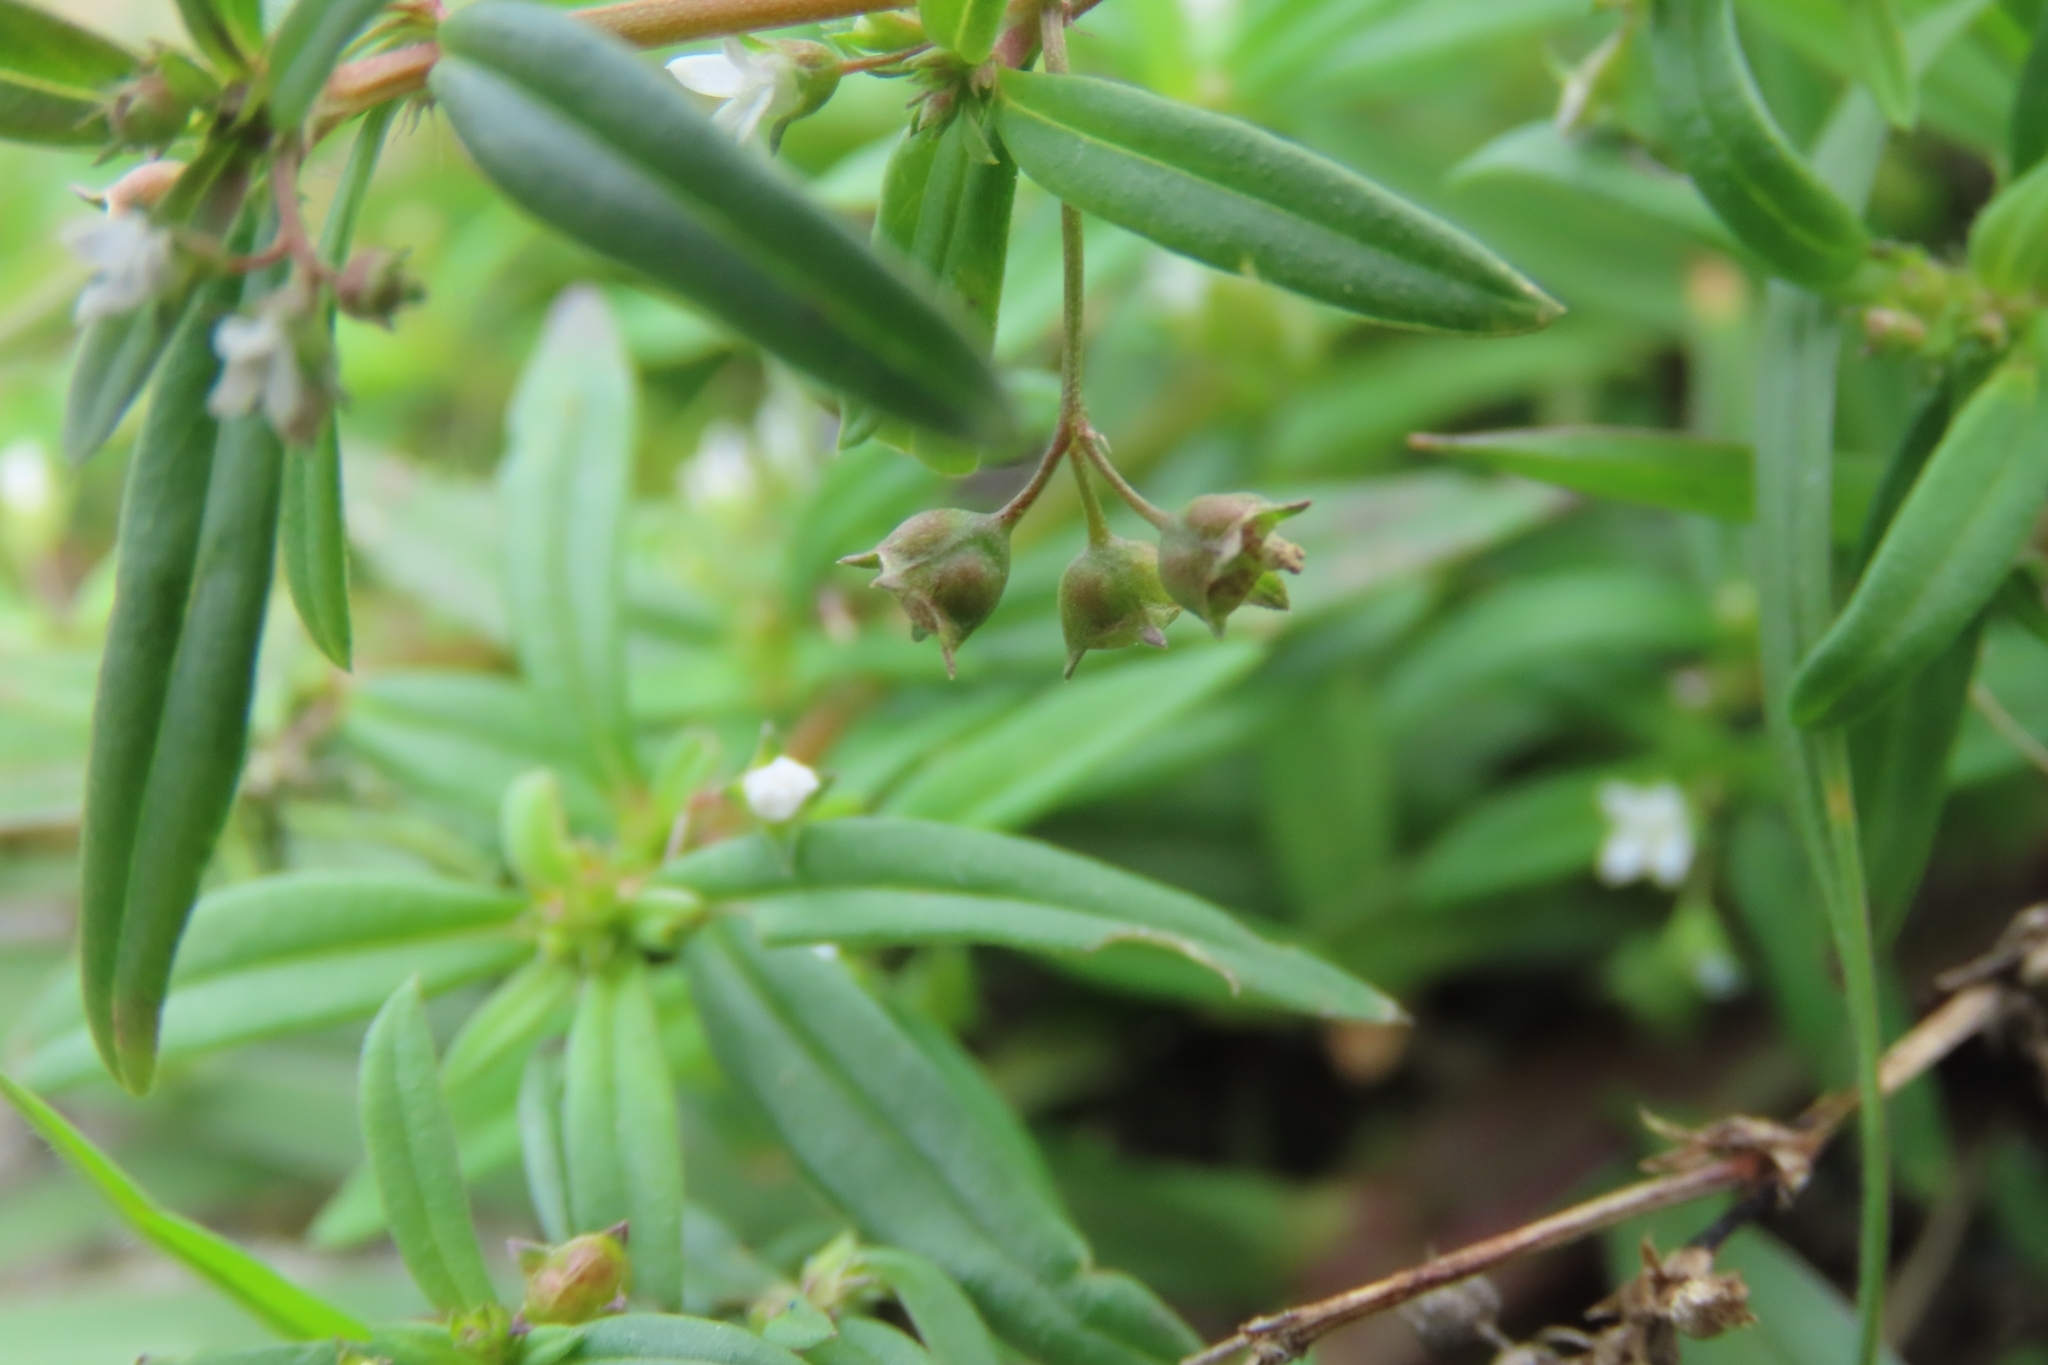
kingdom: Plantae
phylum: Tracheophyta
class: Magnoliopsida
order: Gentianales
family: Rubiaceae
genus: Oldenlandia
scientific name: Oldenlandia corymbosa
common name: Flat-top mille graines
